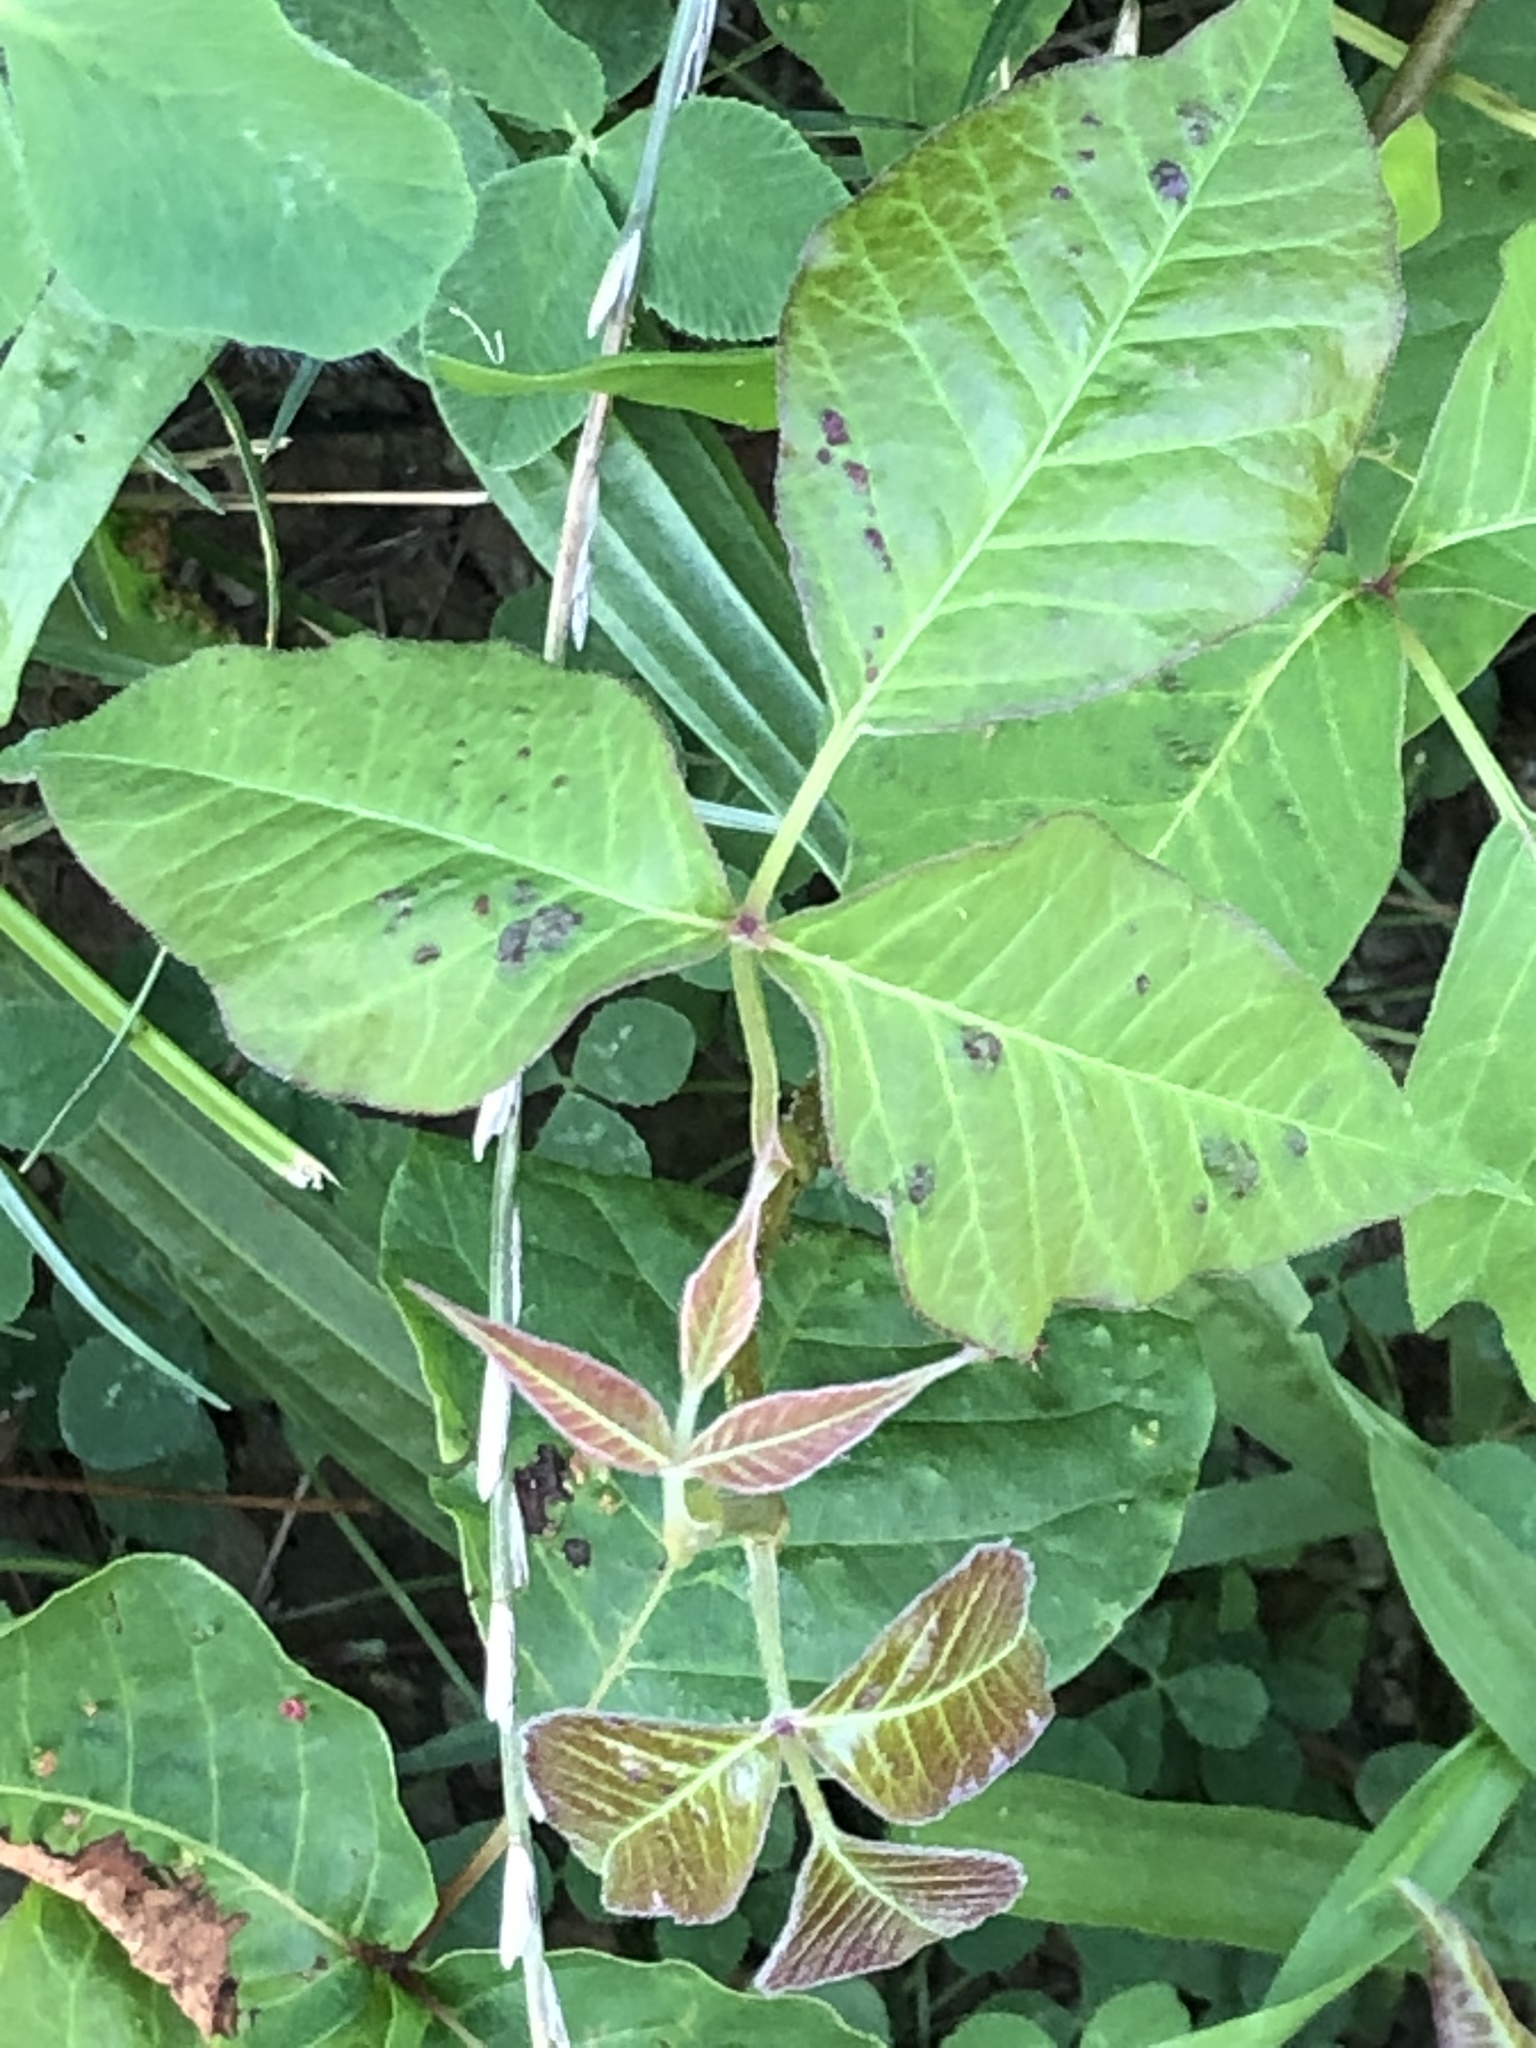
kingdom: Plantae
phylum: Tracheophyta
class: Magnoliopsida
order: Sapindales
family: Anacardiaceae
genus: Toxicodendron
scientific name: Toxicodendron radicans
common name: Poison ivy
